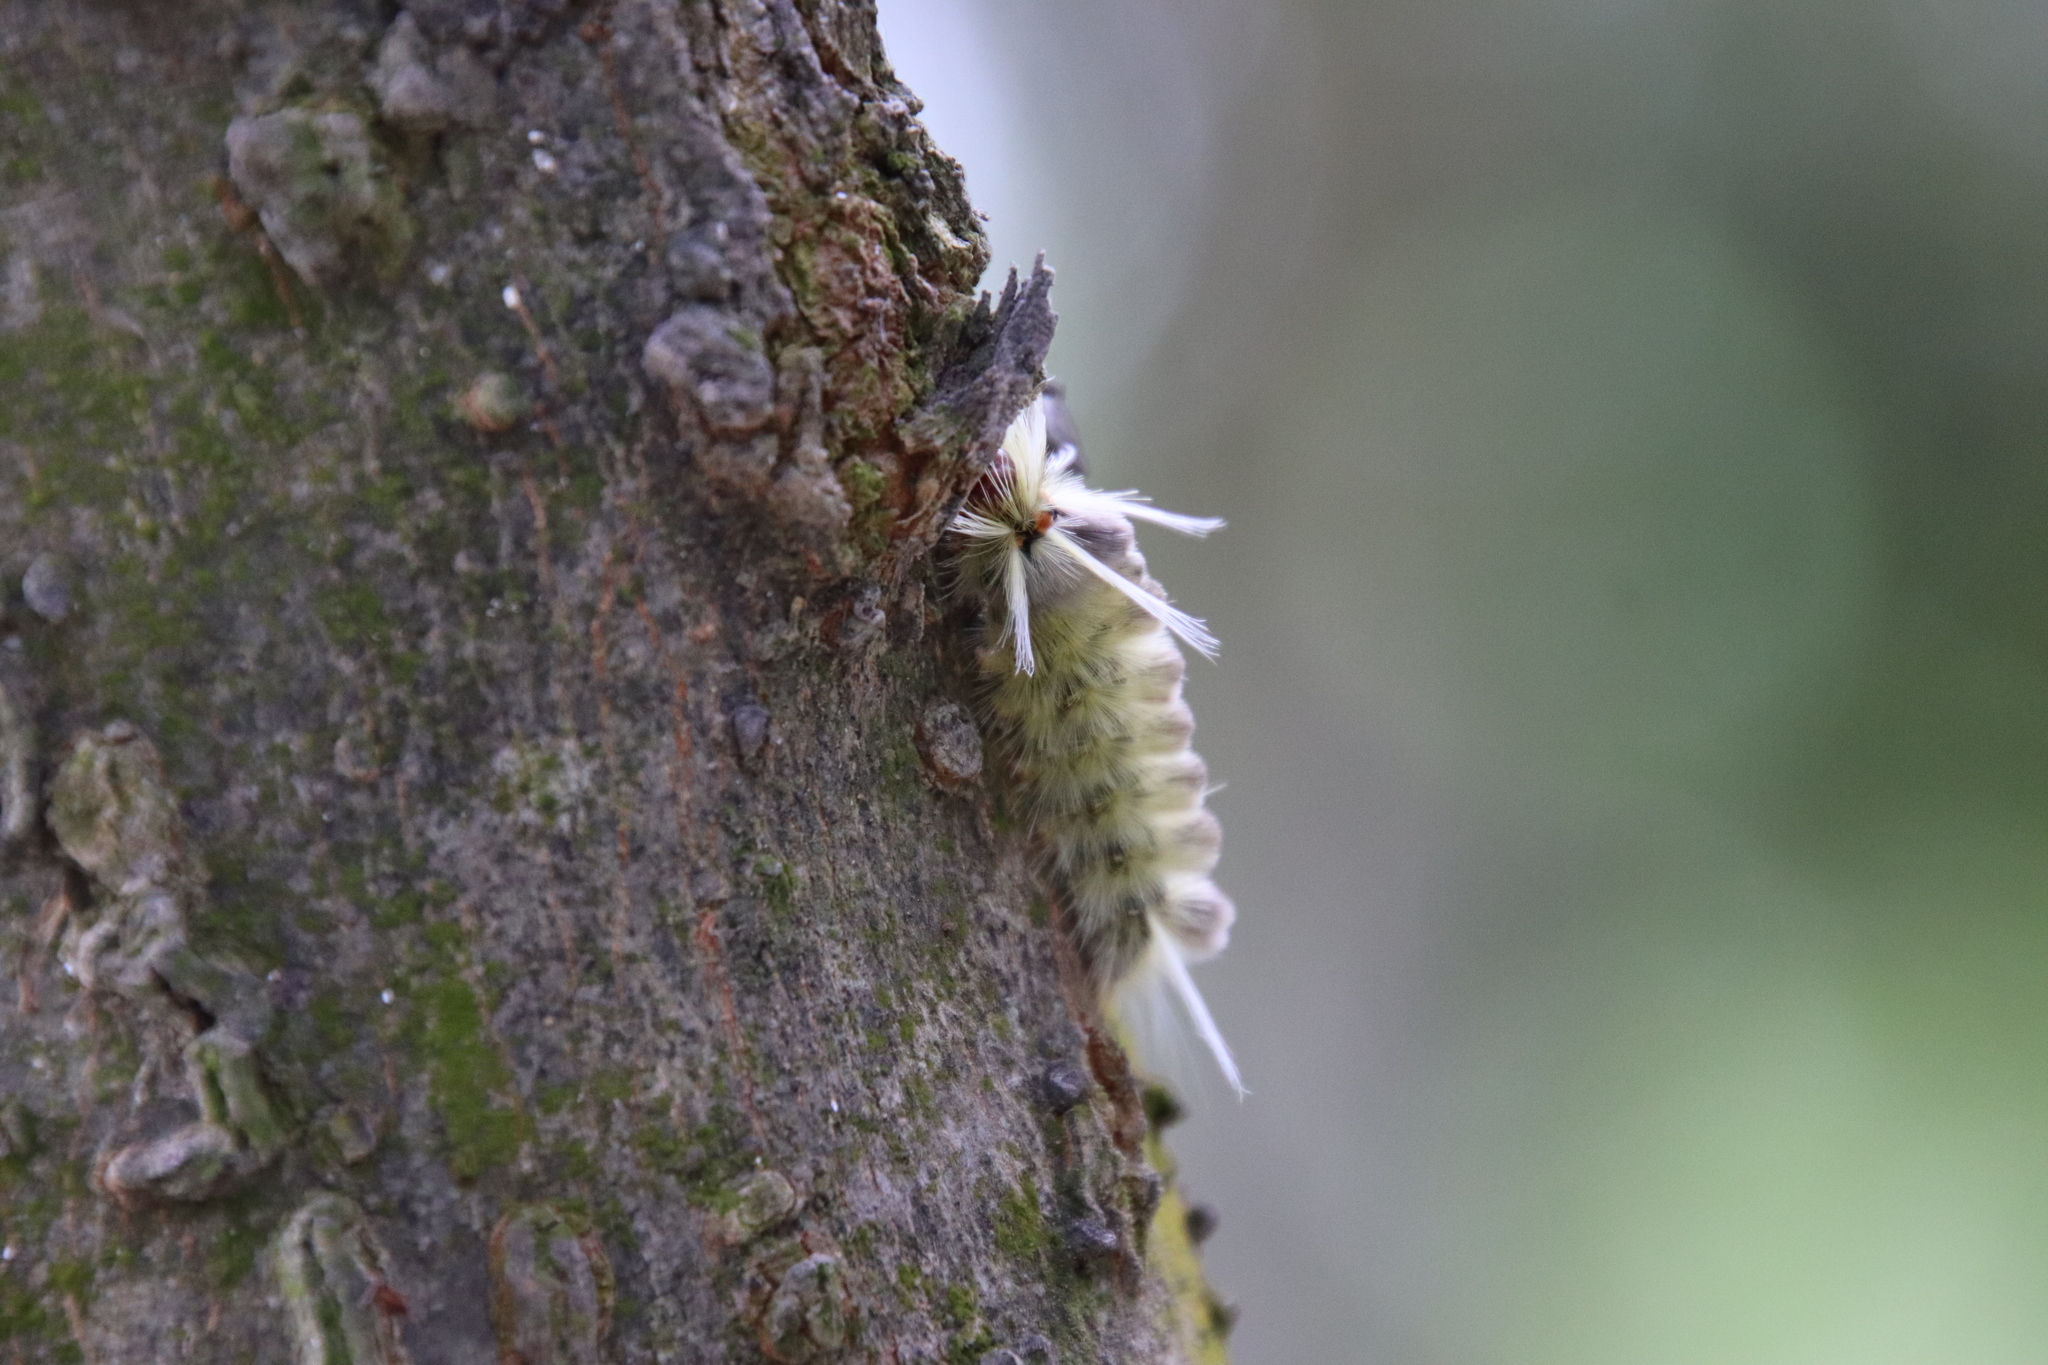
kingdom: Animalia
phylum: Arthropoda
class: Insecta
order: Lepidoptera
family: Erebidae
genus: Halysidota
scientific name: Halysidota schausi
